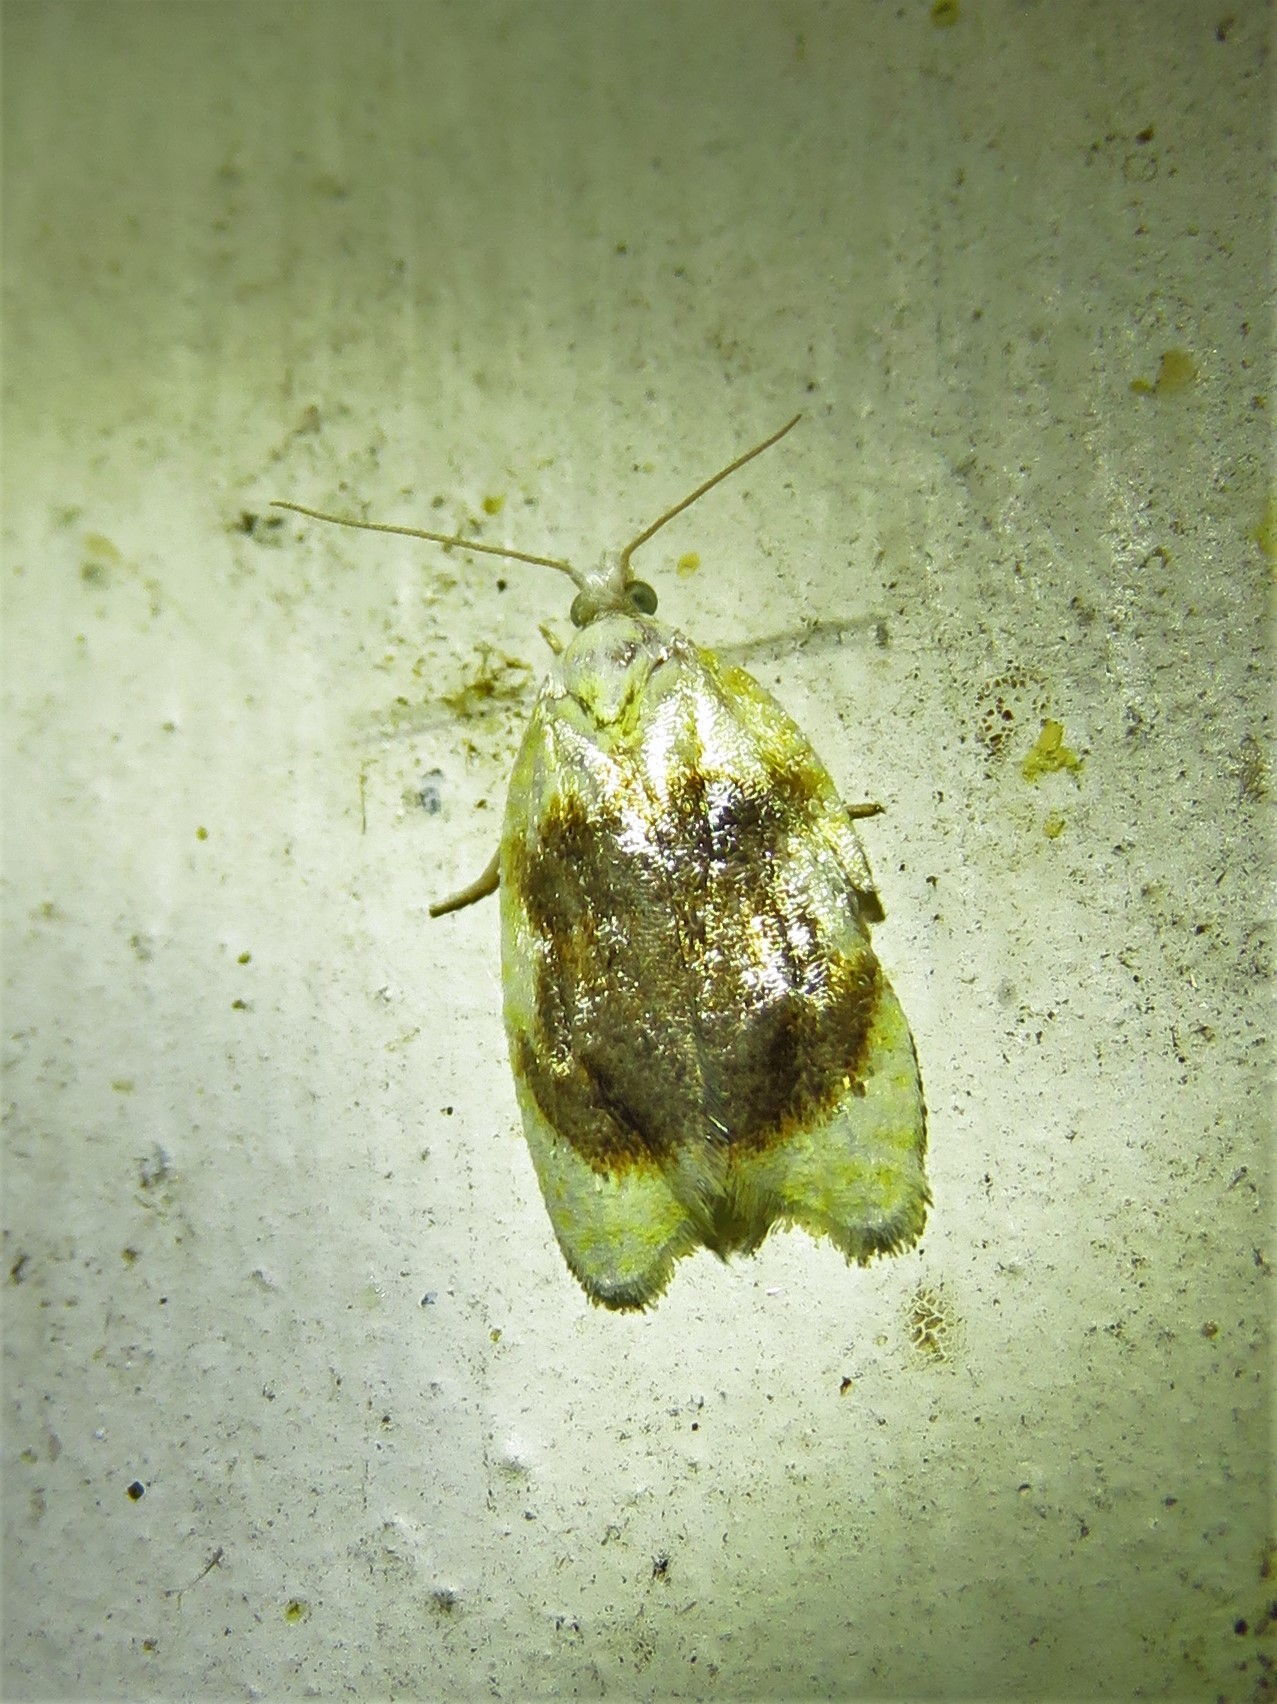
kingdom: Animalia
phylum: Arthropoda
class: Insecta
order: Lepidoptera
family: Tortricidae
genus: Acleris
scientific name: Acleris semipurpurana
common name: Oak leaftier moth
